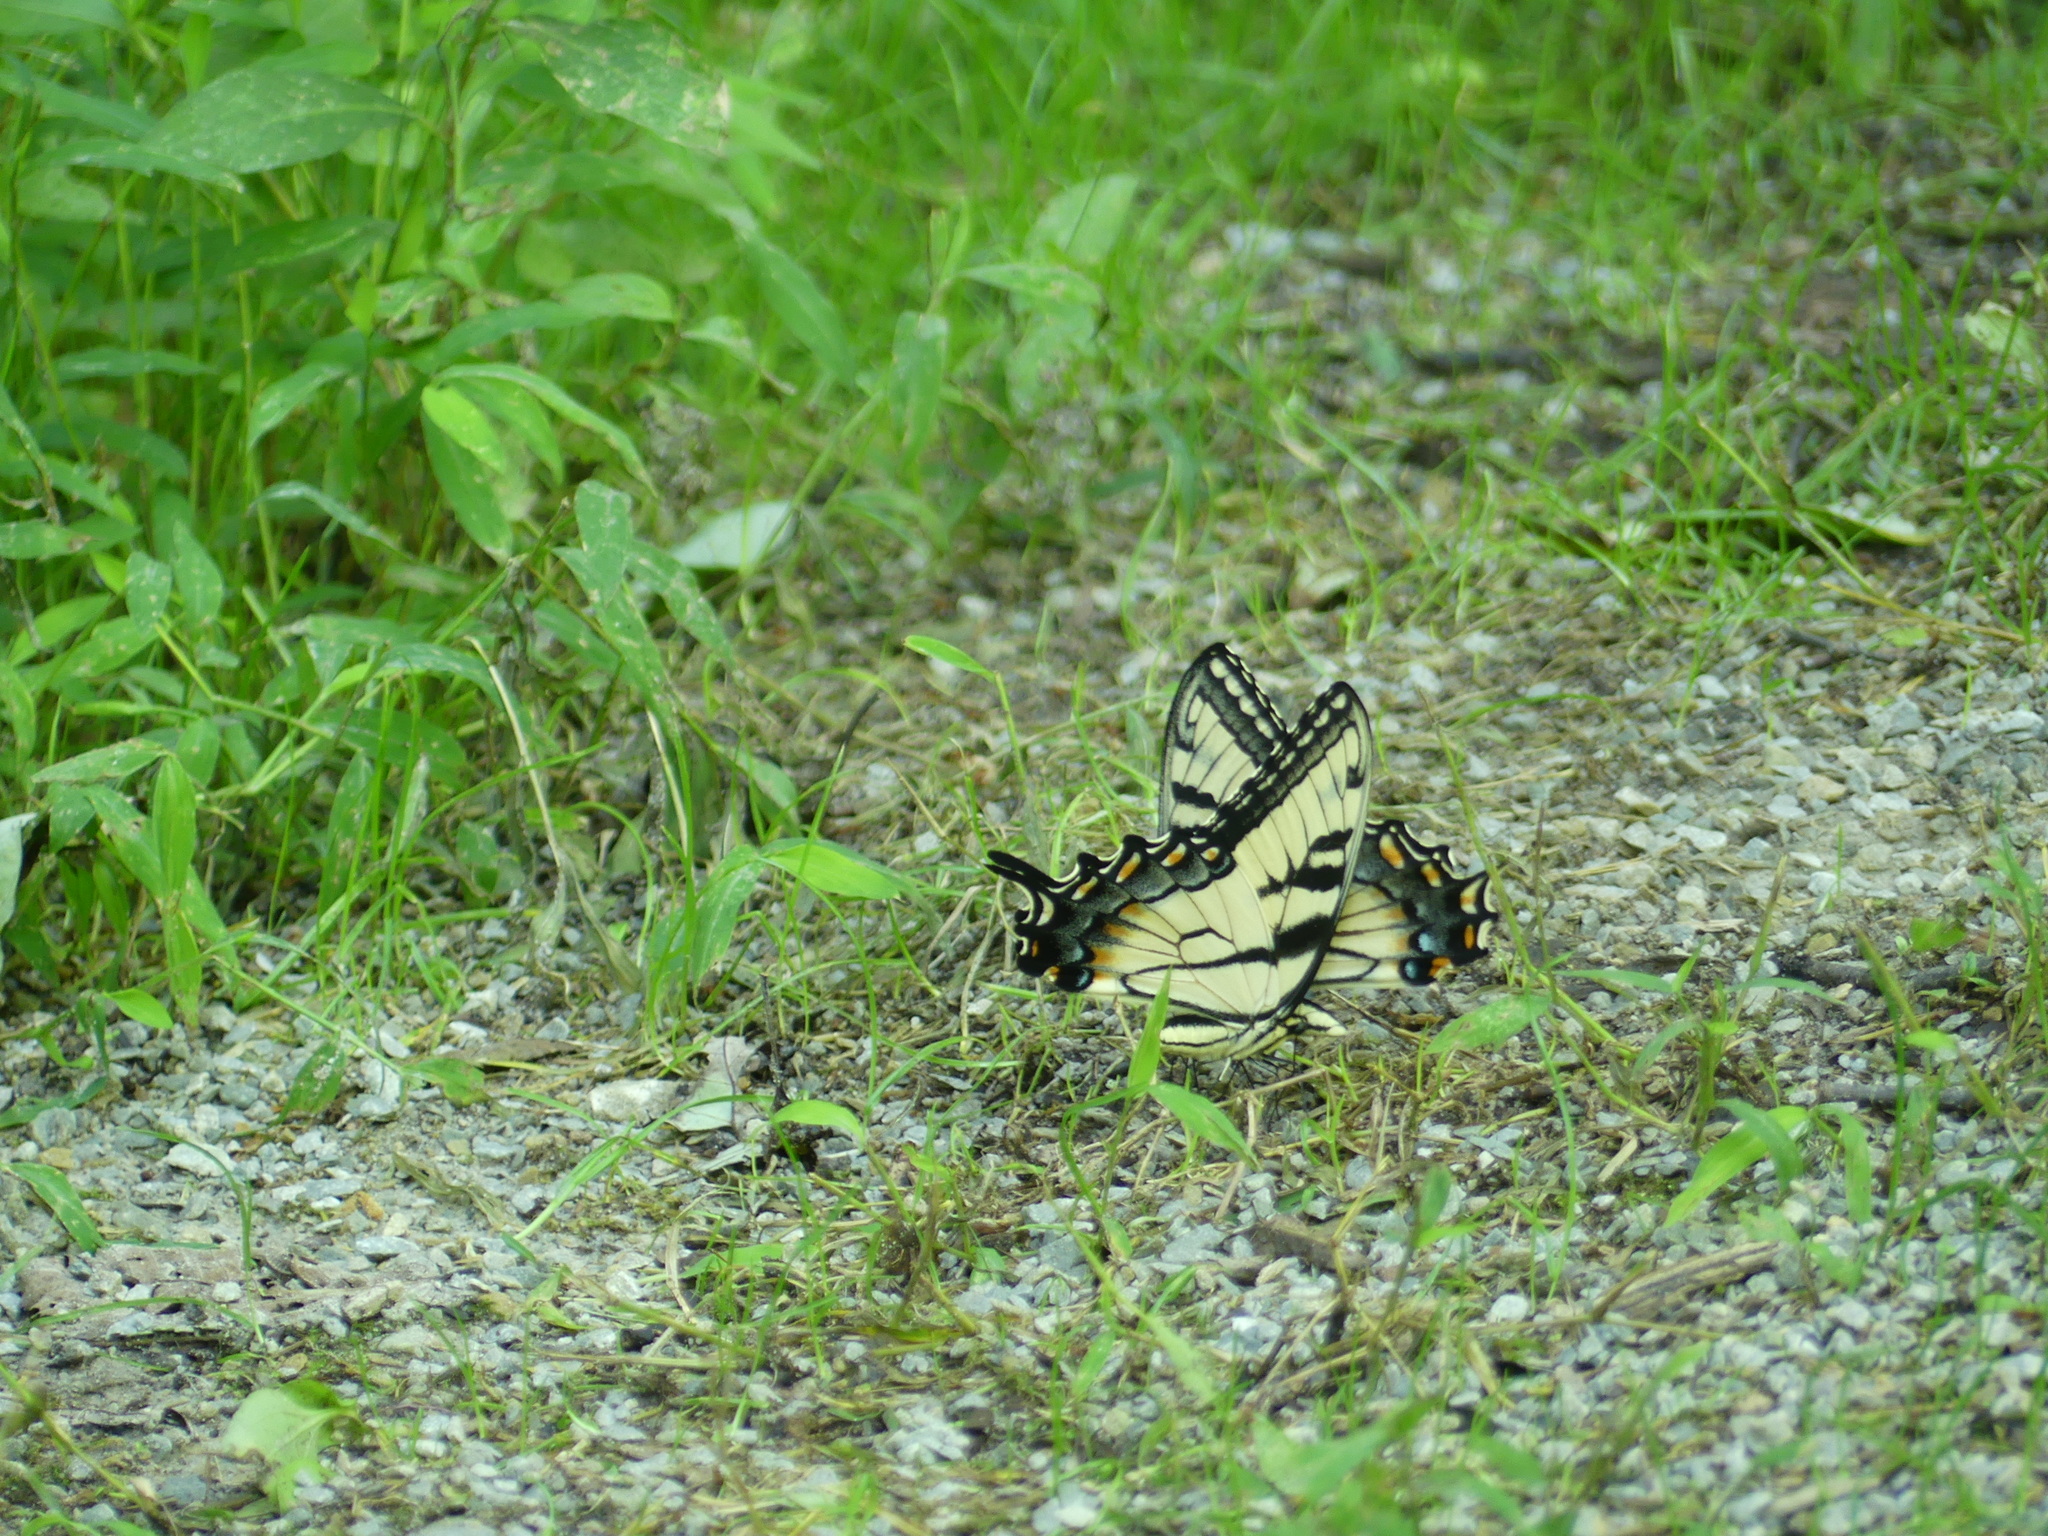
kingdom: Animalia
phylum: Arthropoda
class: Insecta
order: Lepidoptera
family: Papilionidae
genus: Papilio
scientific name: Papilio glaucus
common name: Tiger swallowtail
